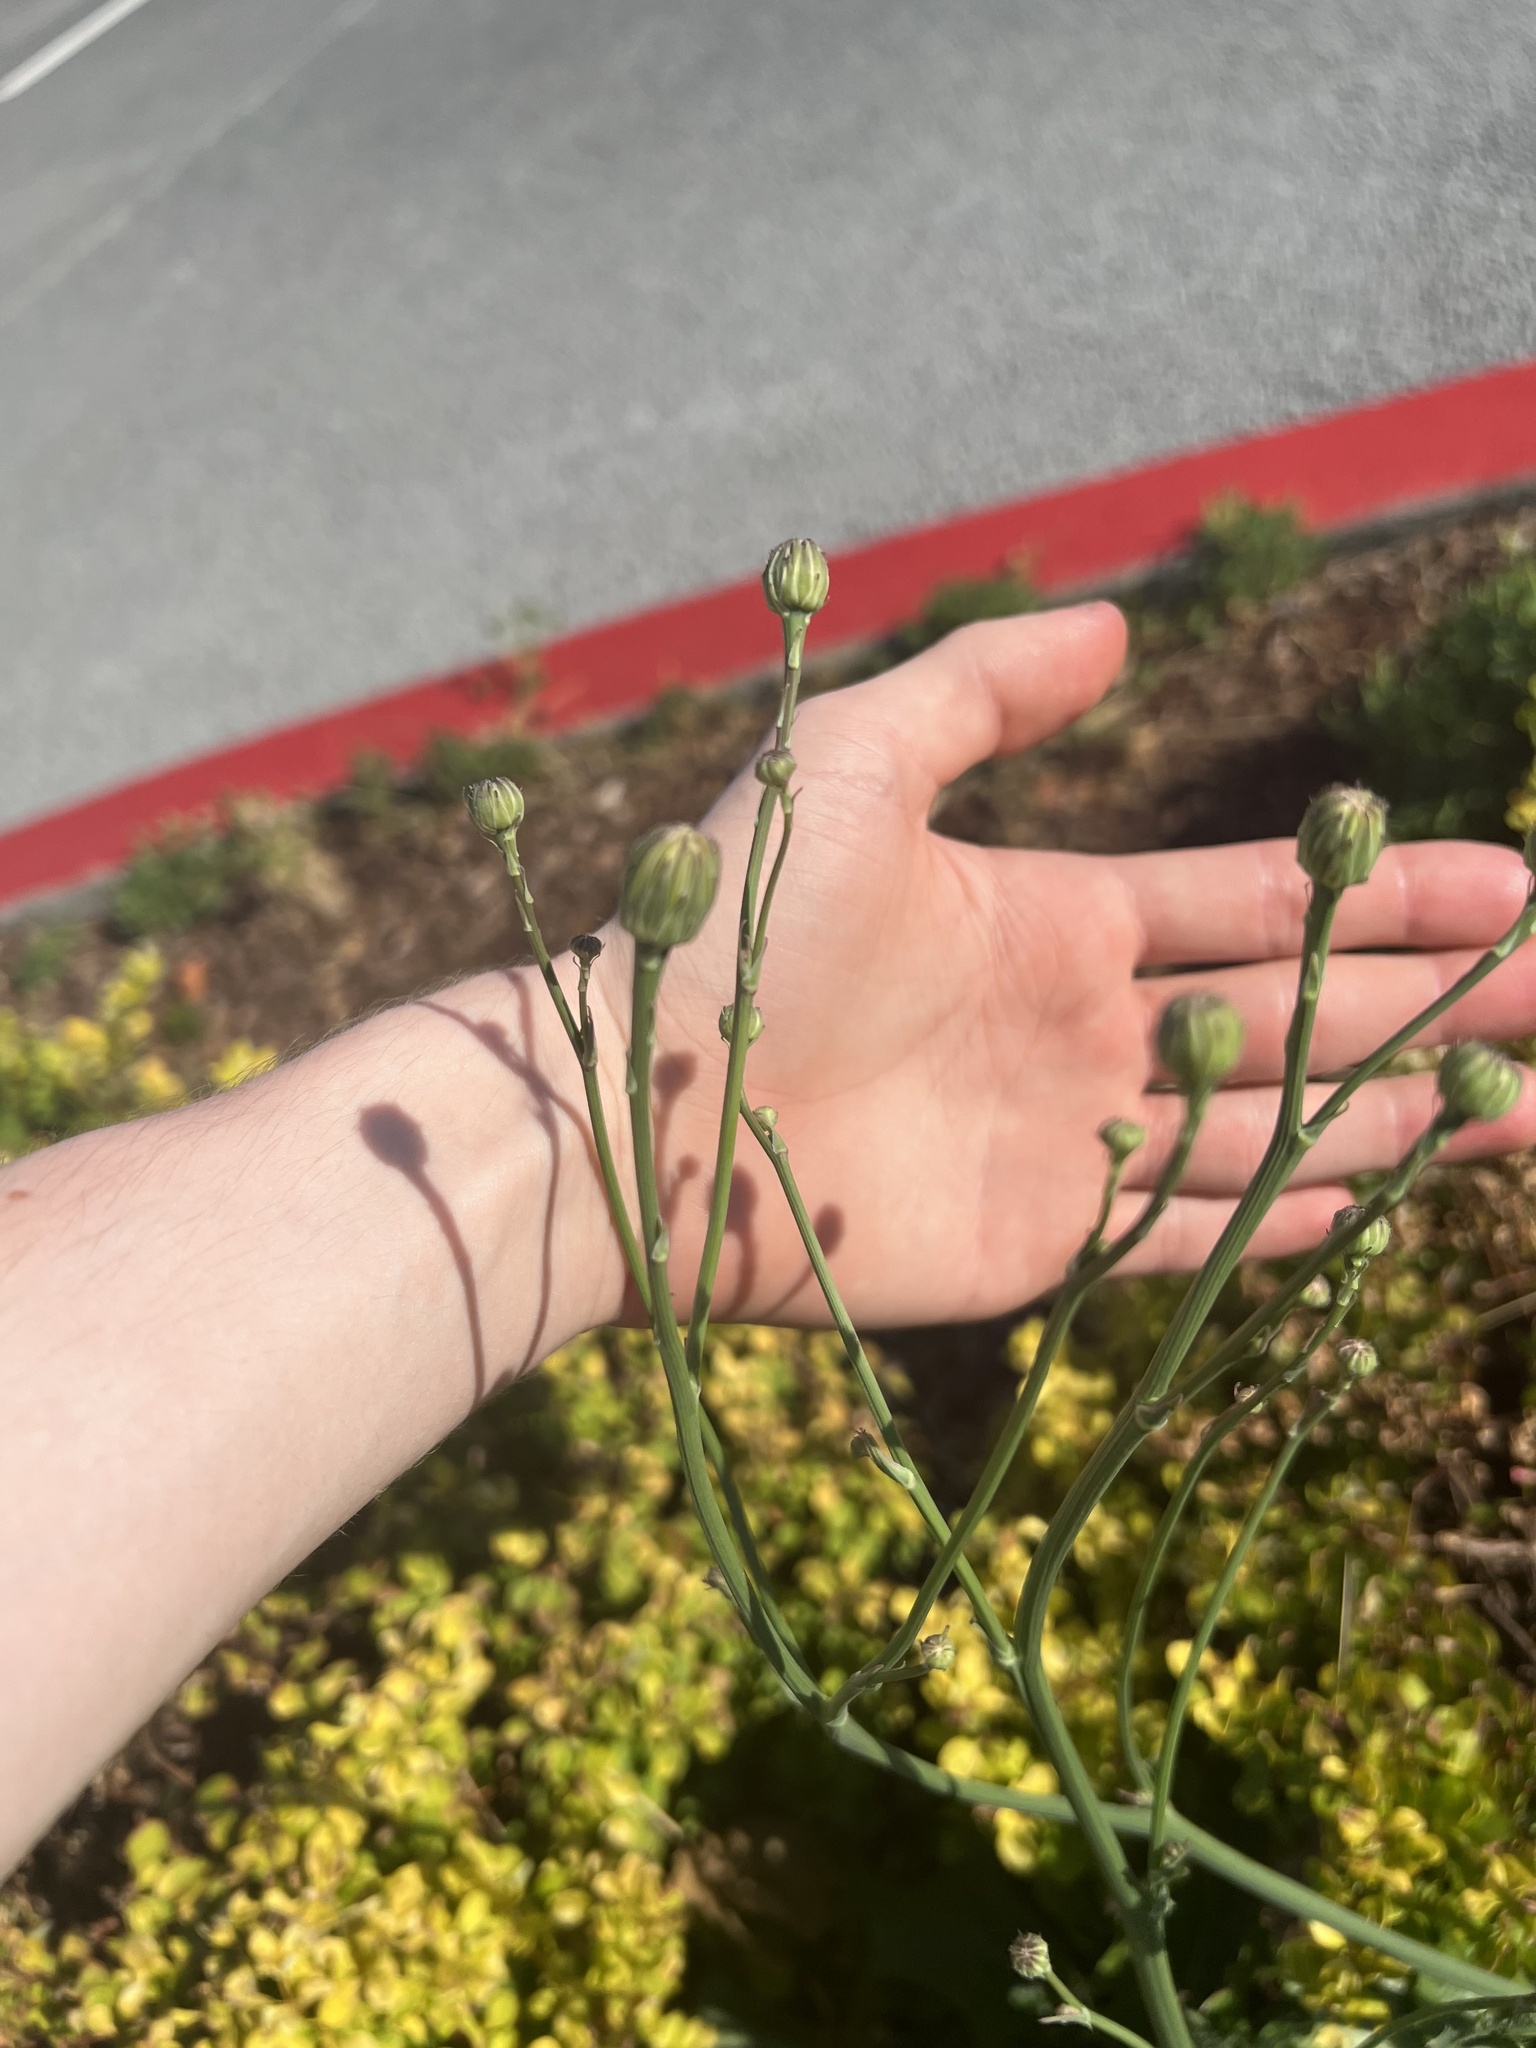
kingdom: Plantae
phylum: Tracheophyta
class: Magnoliopsida
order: Asterales
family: Asteraceae
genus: Hypochaeris
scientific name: Hypochaeris radicata
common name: Flatweed
